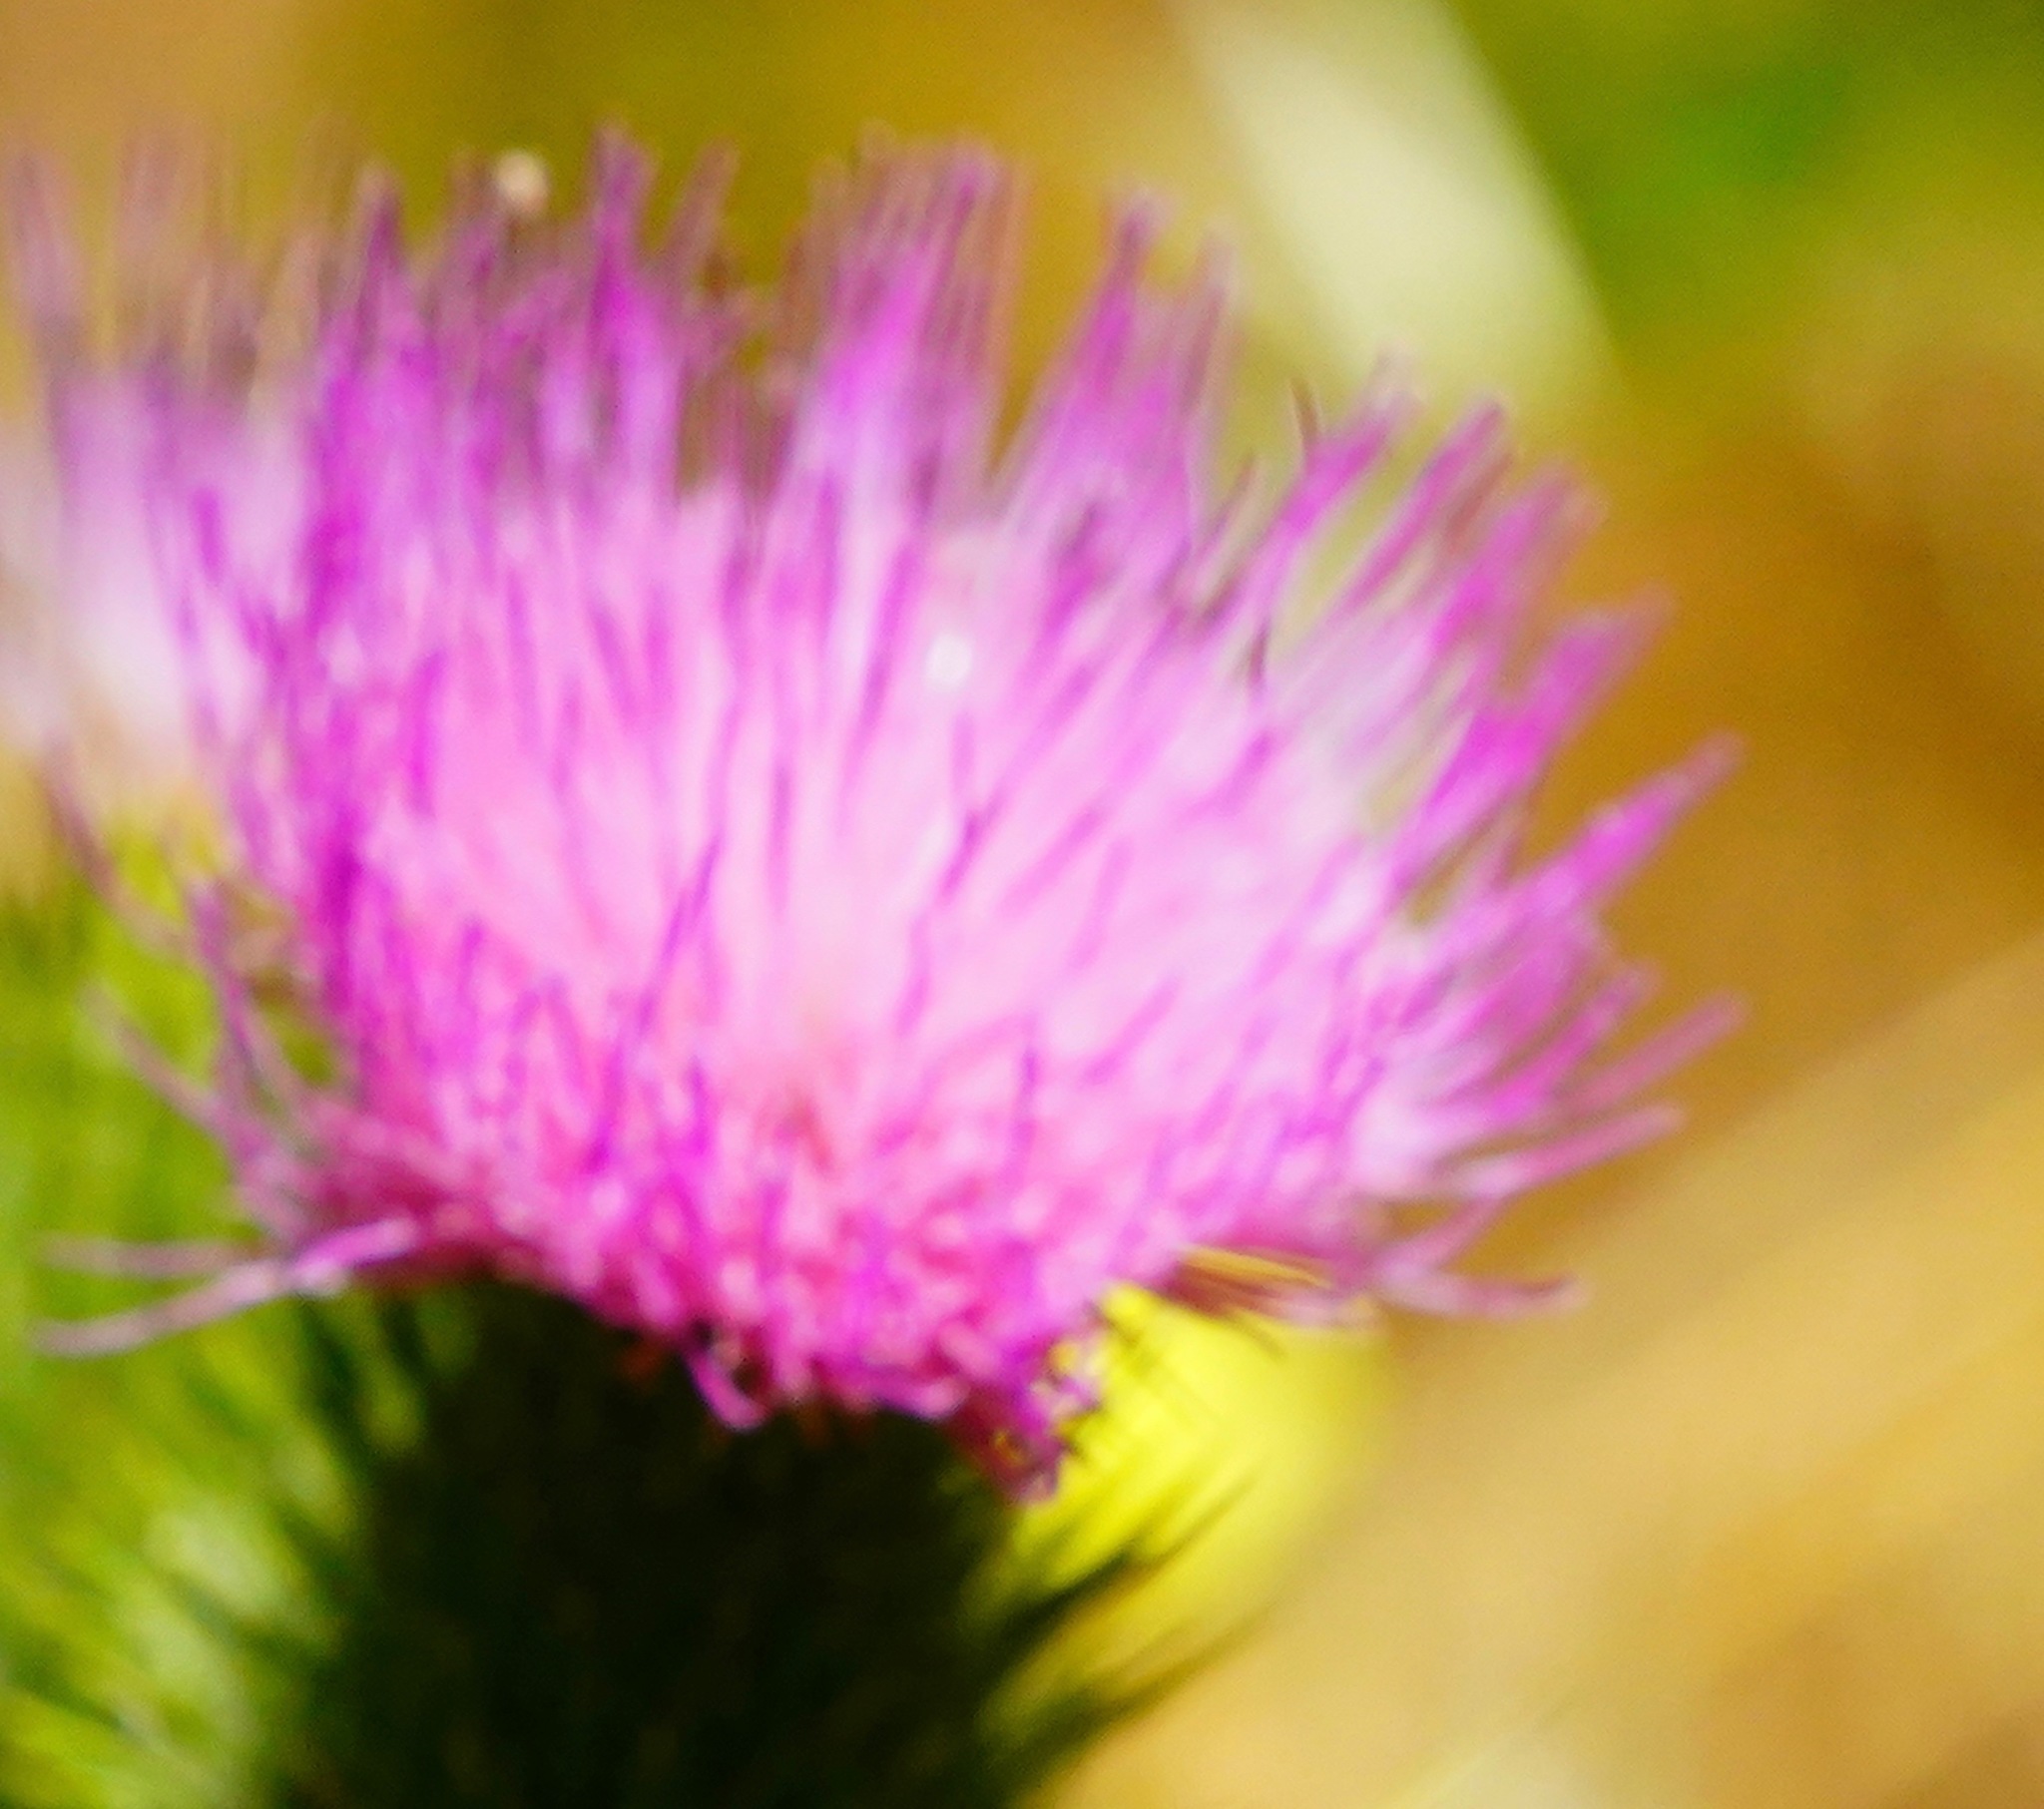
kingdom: Plantae
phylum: Tracheophyta
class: Magnoliopsida
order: Asterales
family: Asteraceae
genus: Cirsium
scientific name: Cirsium vulgare
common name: Bull thistle
